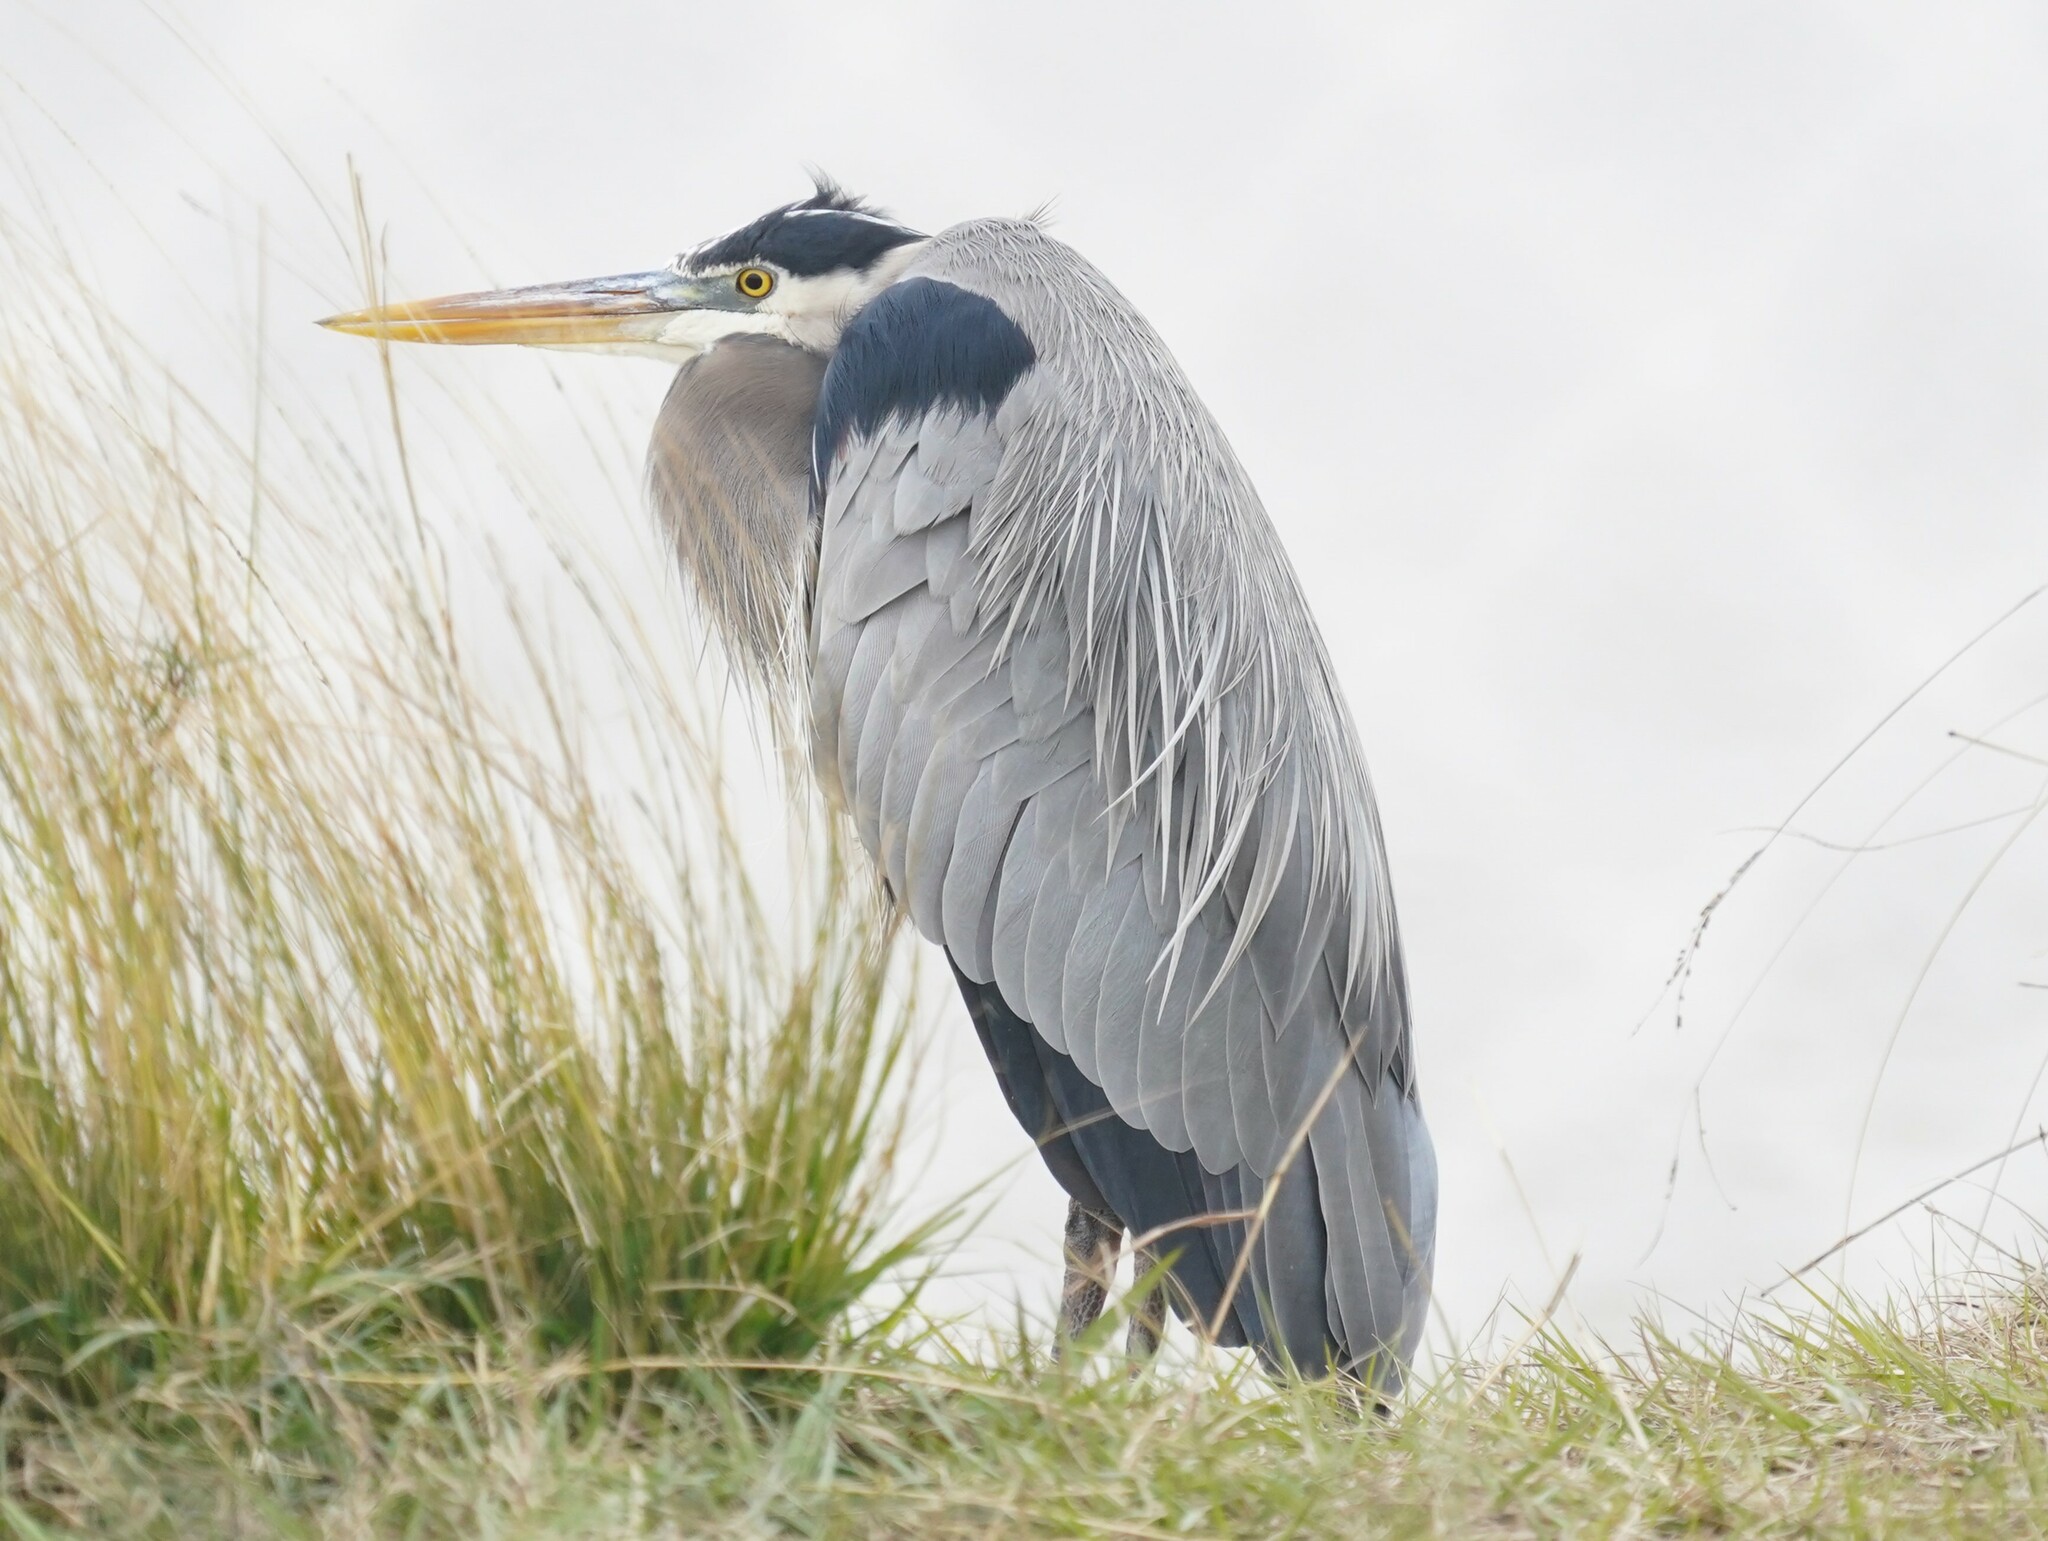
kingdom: Animalia
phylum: Chordata
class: Aves
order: Pelecaniformes
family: Ardeidae
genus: Ardea
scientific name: Ardea herodias
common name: Great blue heron
